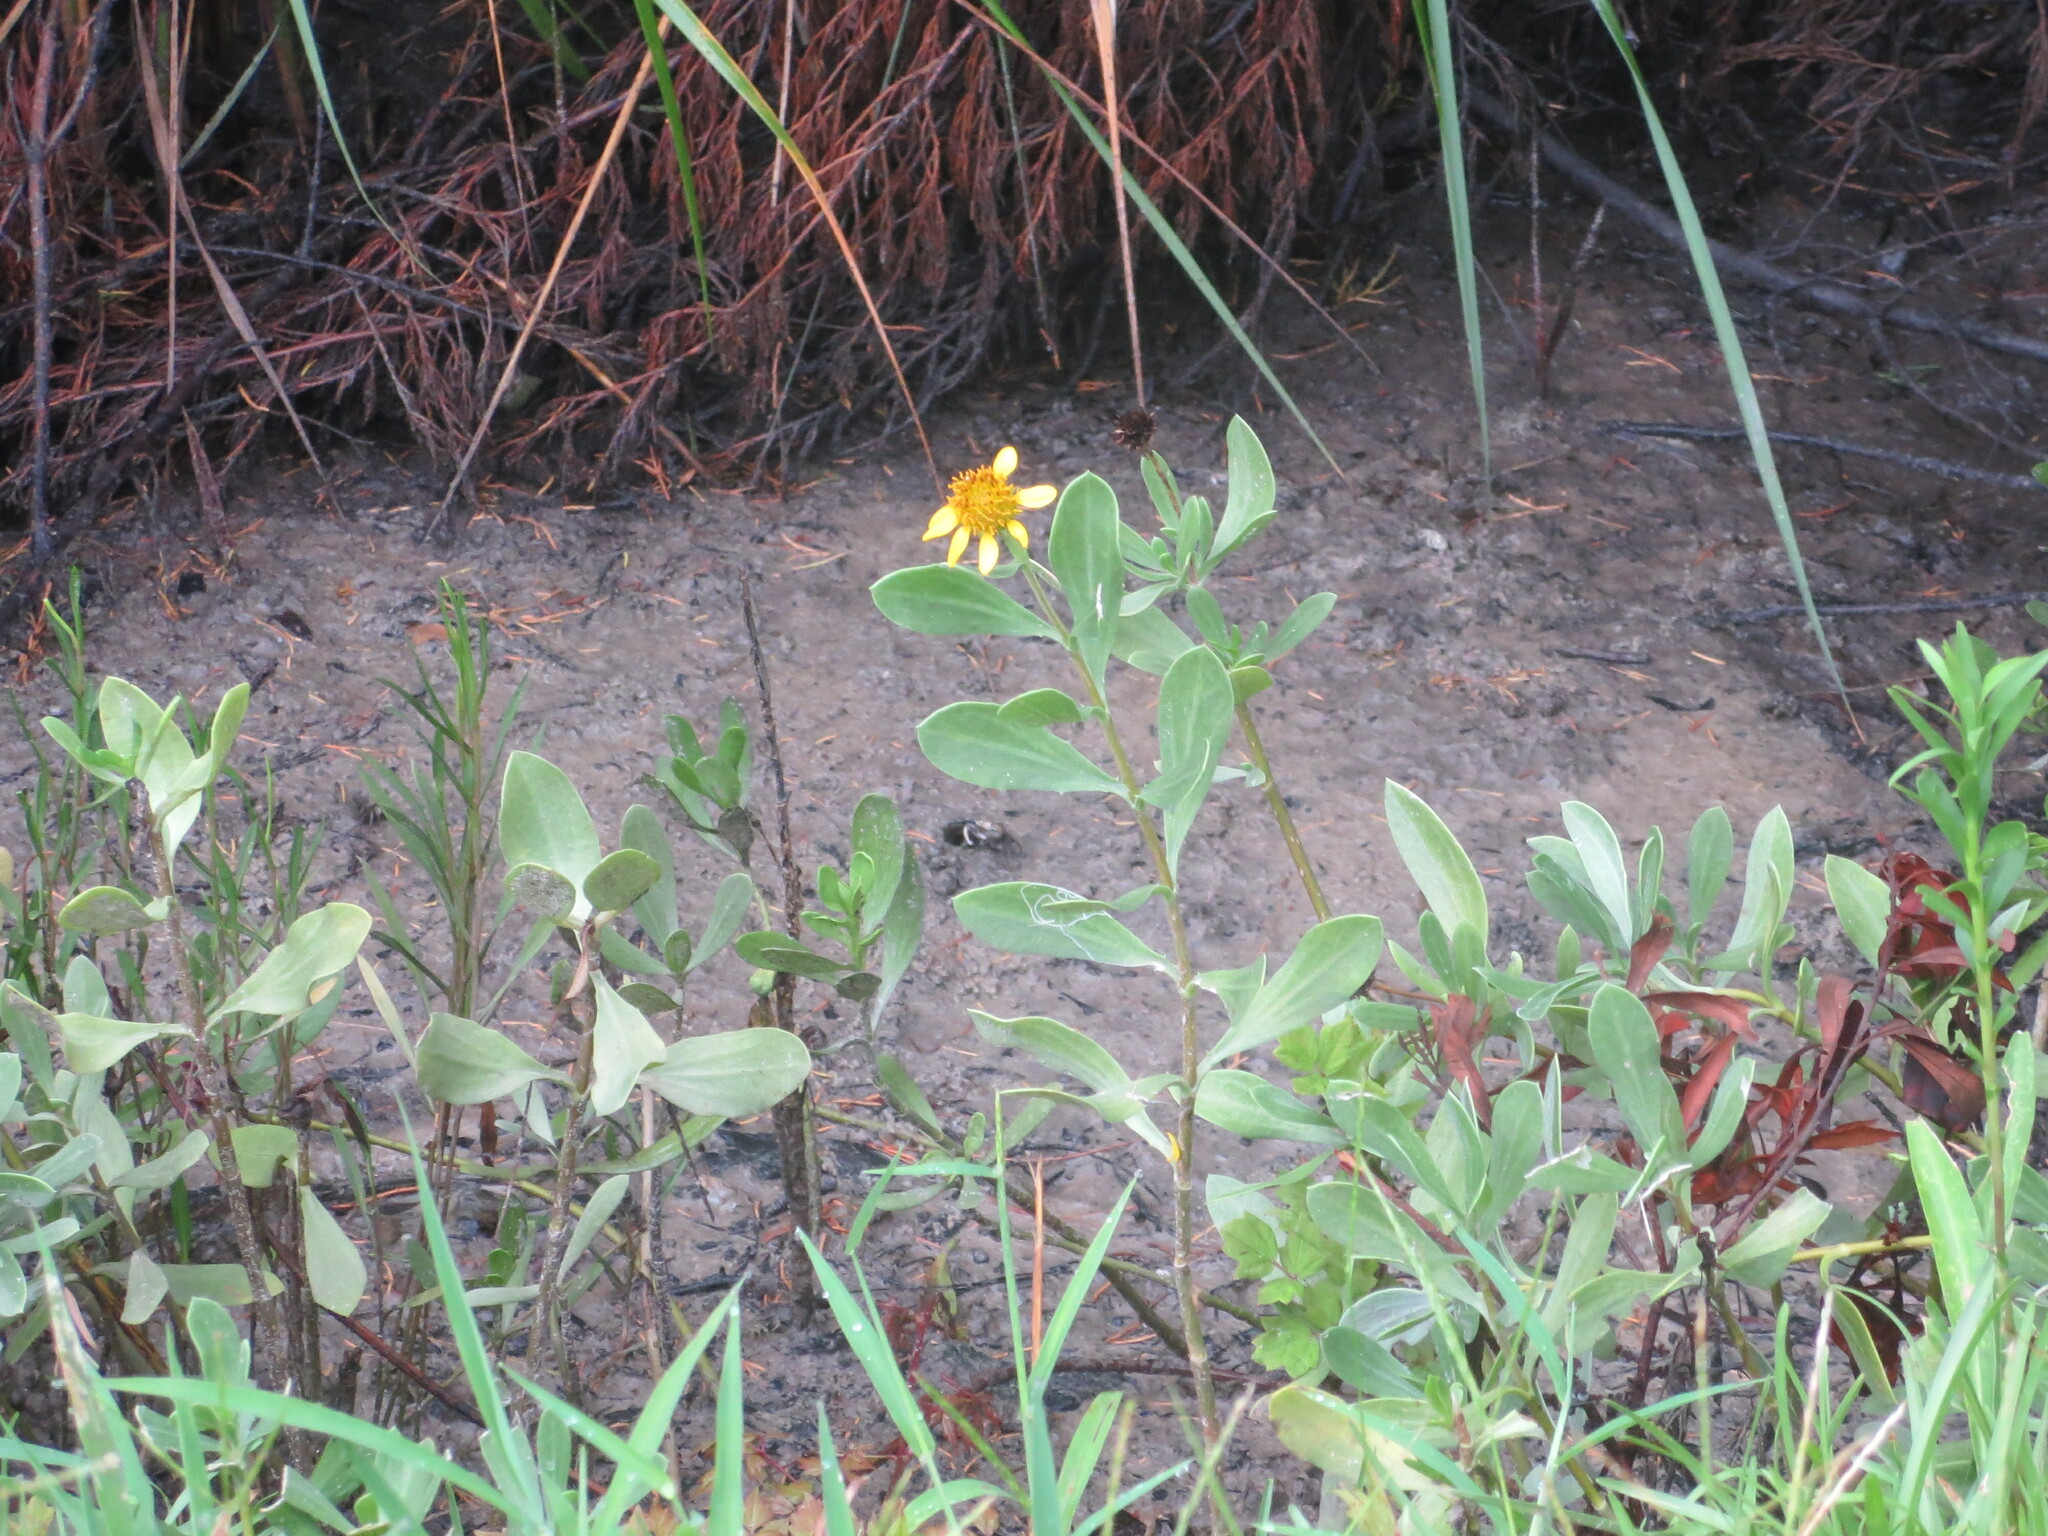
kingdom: Plantae
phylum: Tracheophyta
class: Magnoliopsida
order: Asterales
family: Asteraceae
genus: Borrichia
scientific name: Borrichia frutescens
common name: Sea oxeye
